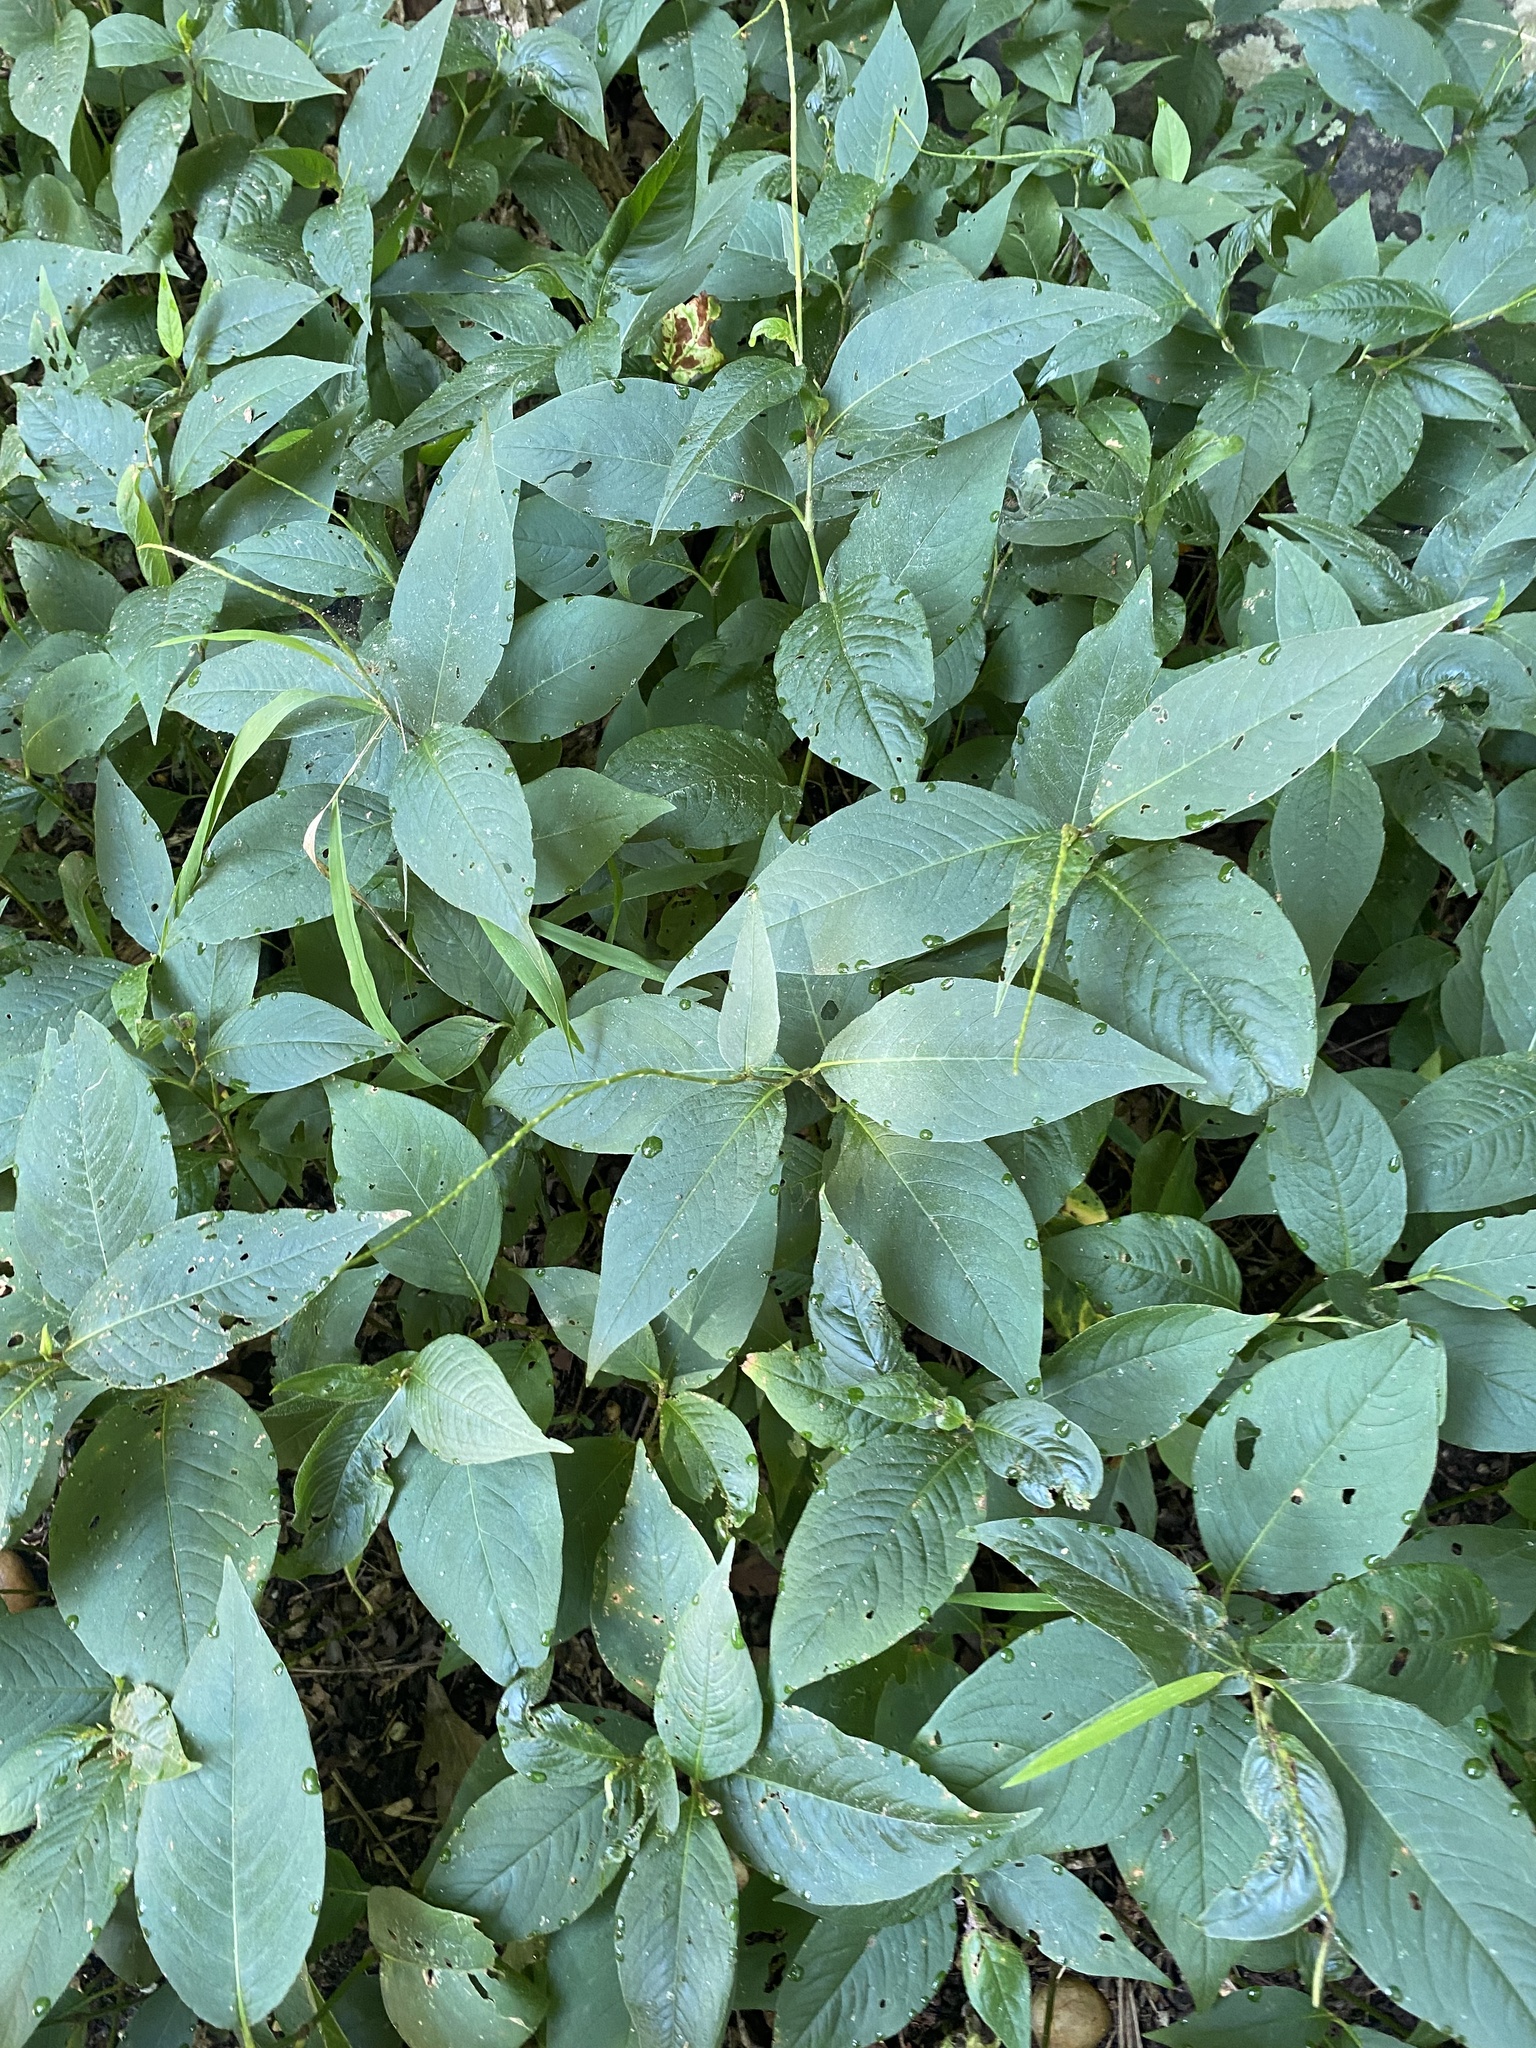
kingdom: Plantae
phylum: Tracheophyta
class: Magnoliopsida
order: Caryophyllales
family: Polygonaceae
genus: Persicaria
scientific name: Persicaria virginiana
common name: Jumpseed
